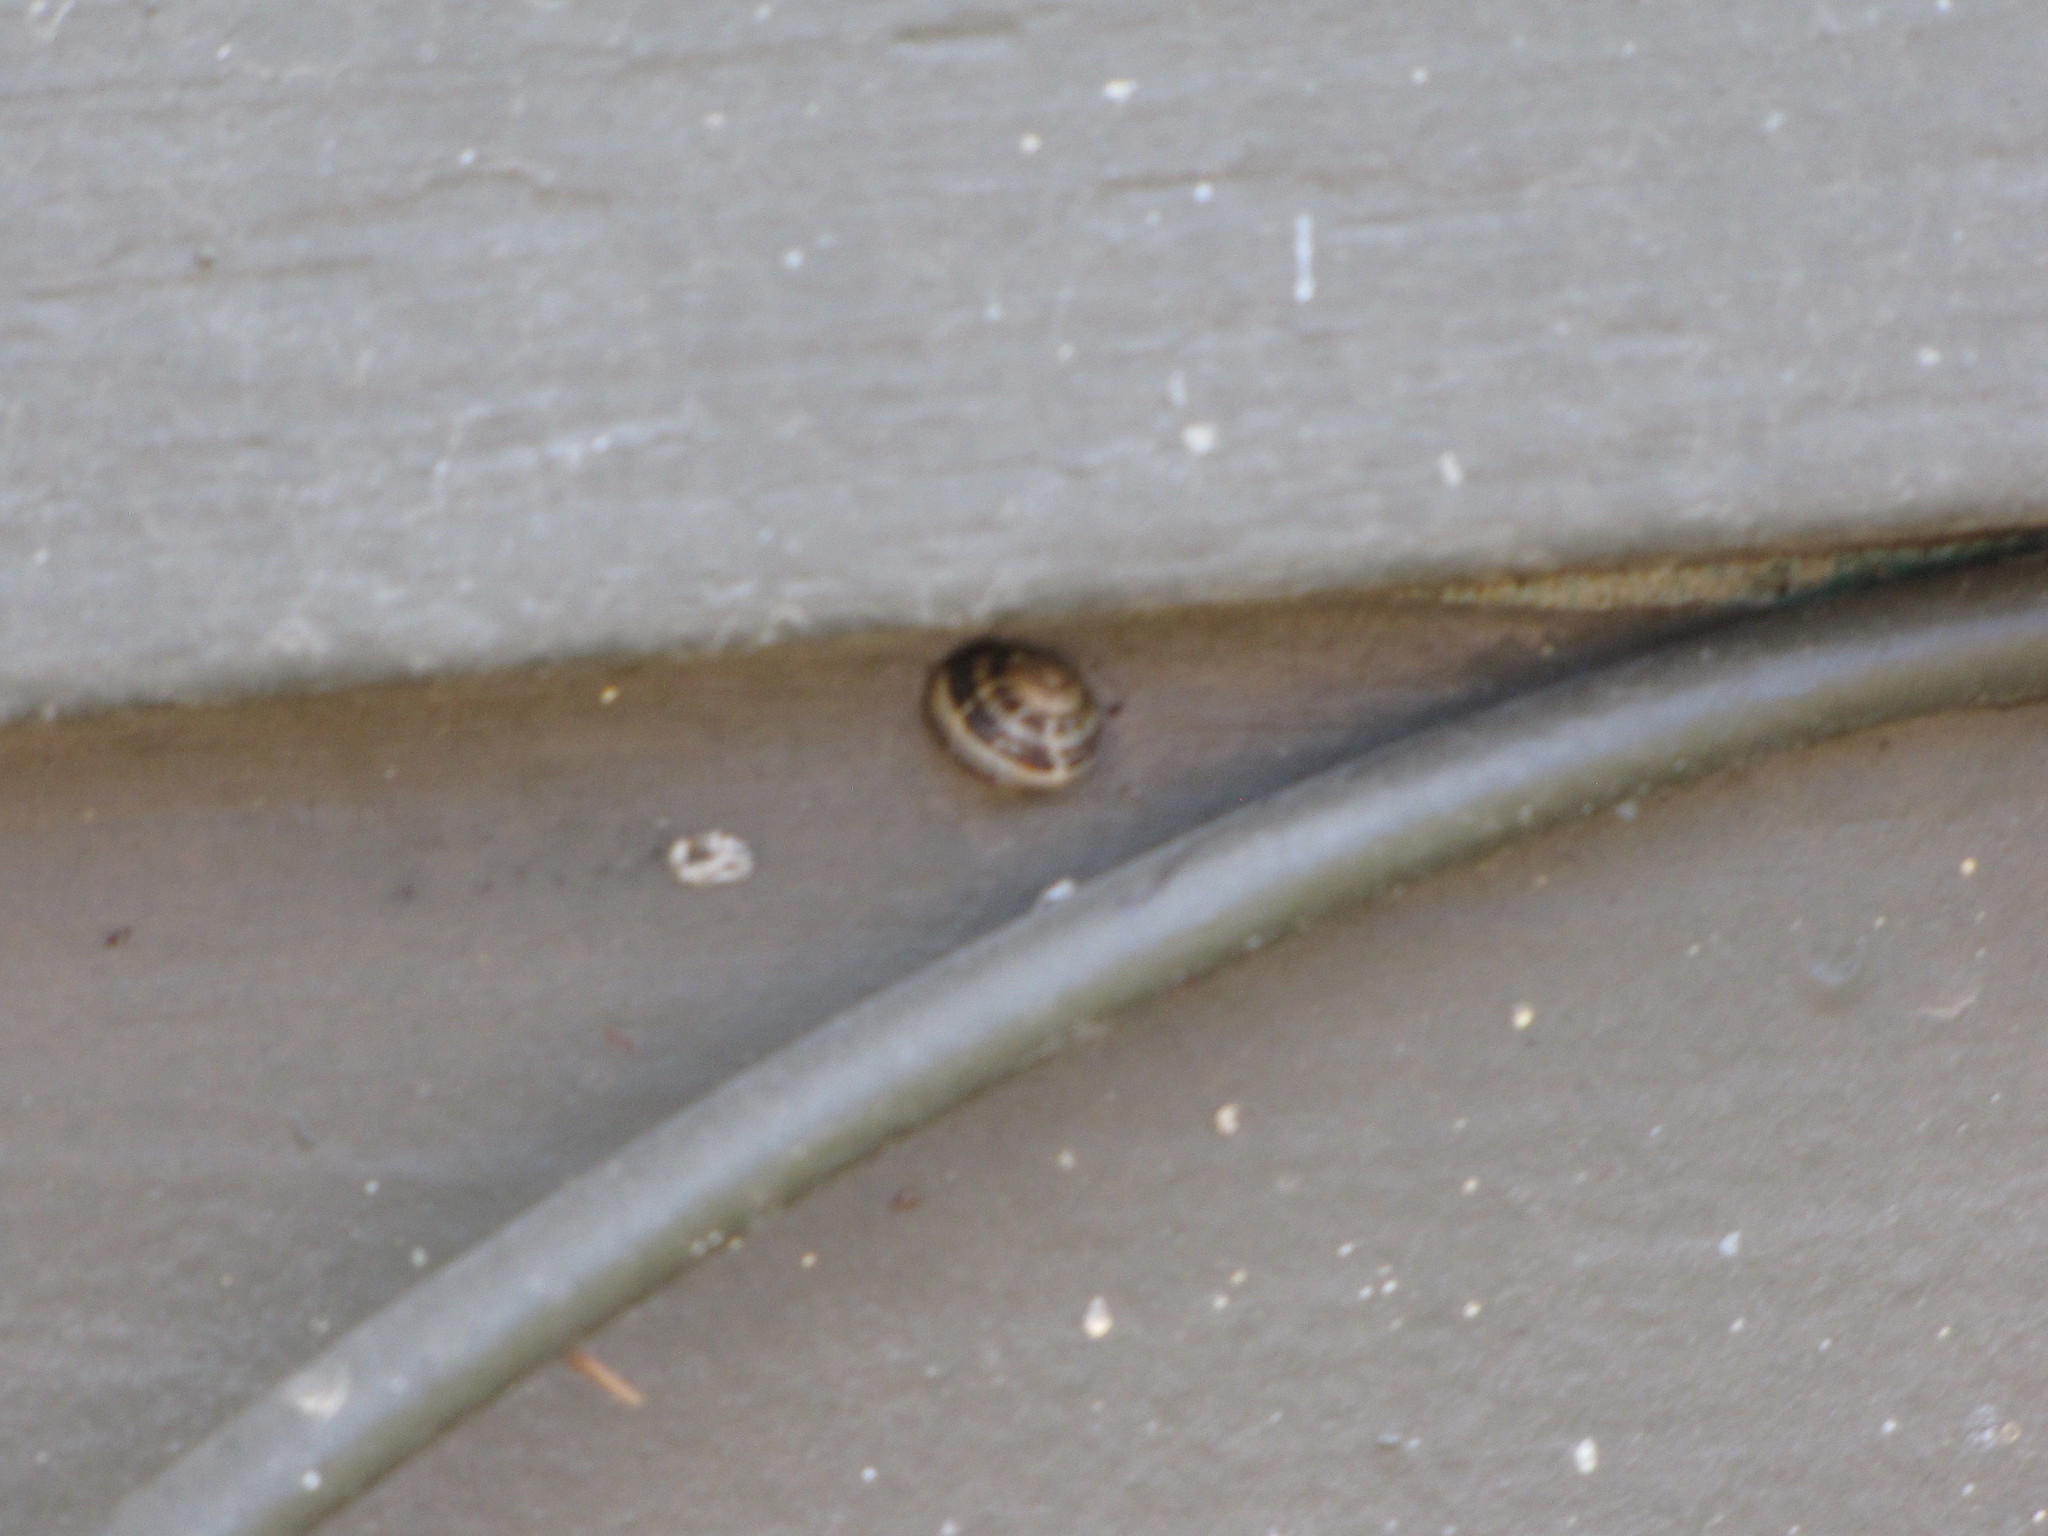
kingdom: Animalia
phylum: Mollusca
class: Gastropoda
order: Stylommatophora
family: Helicidae
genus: Cornu
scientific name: Cornu aspersum
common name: Brown garden snail
